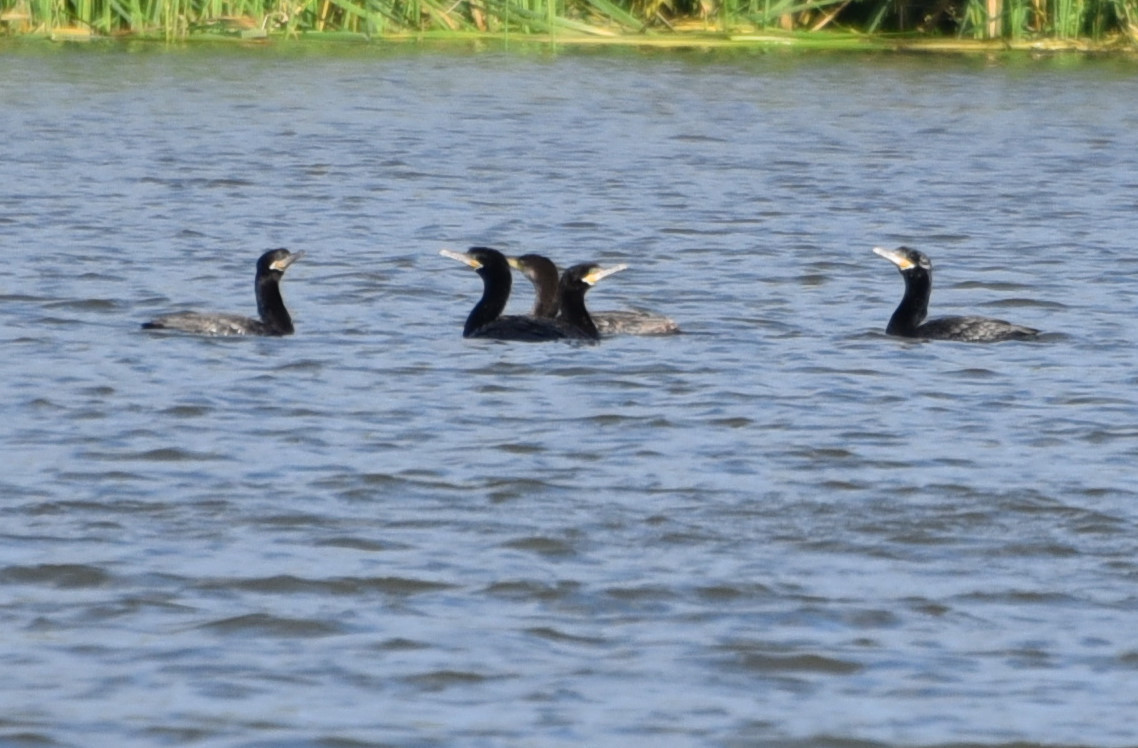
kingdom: Animalia
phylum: Chordata
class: Aves
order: Suliformes
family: Phalacrocoracidae
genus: Phalacrocorax
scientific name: Phalacrocorax brasilianus
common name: Neotropic cormorant
